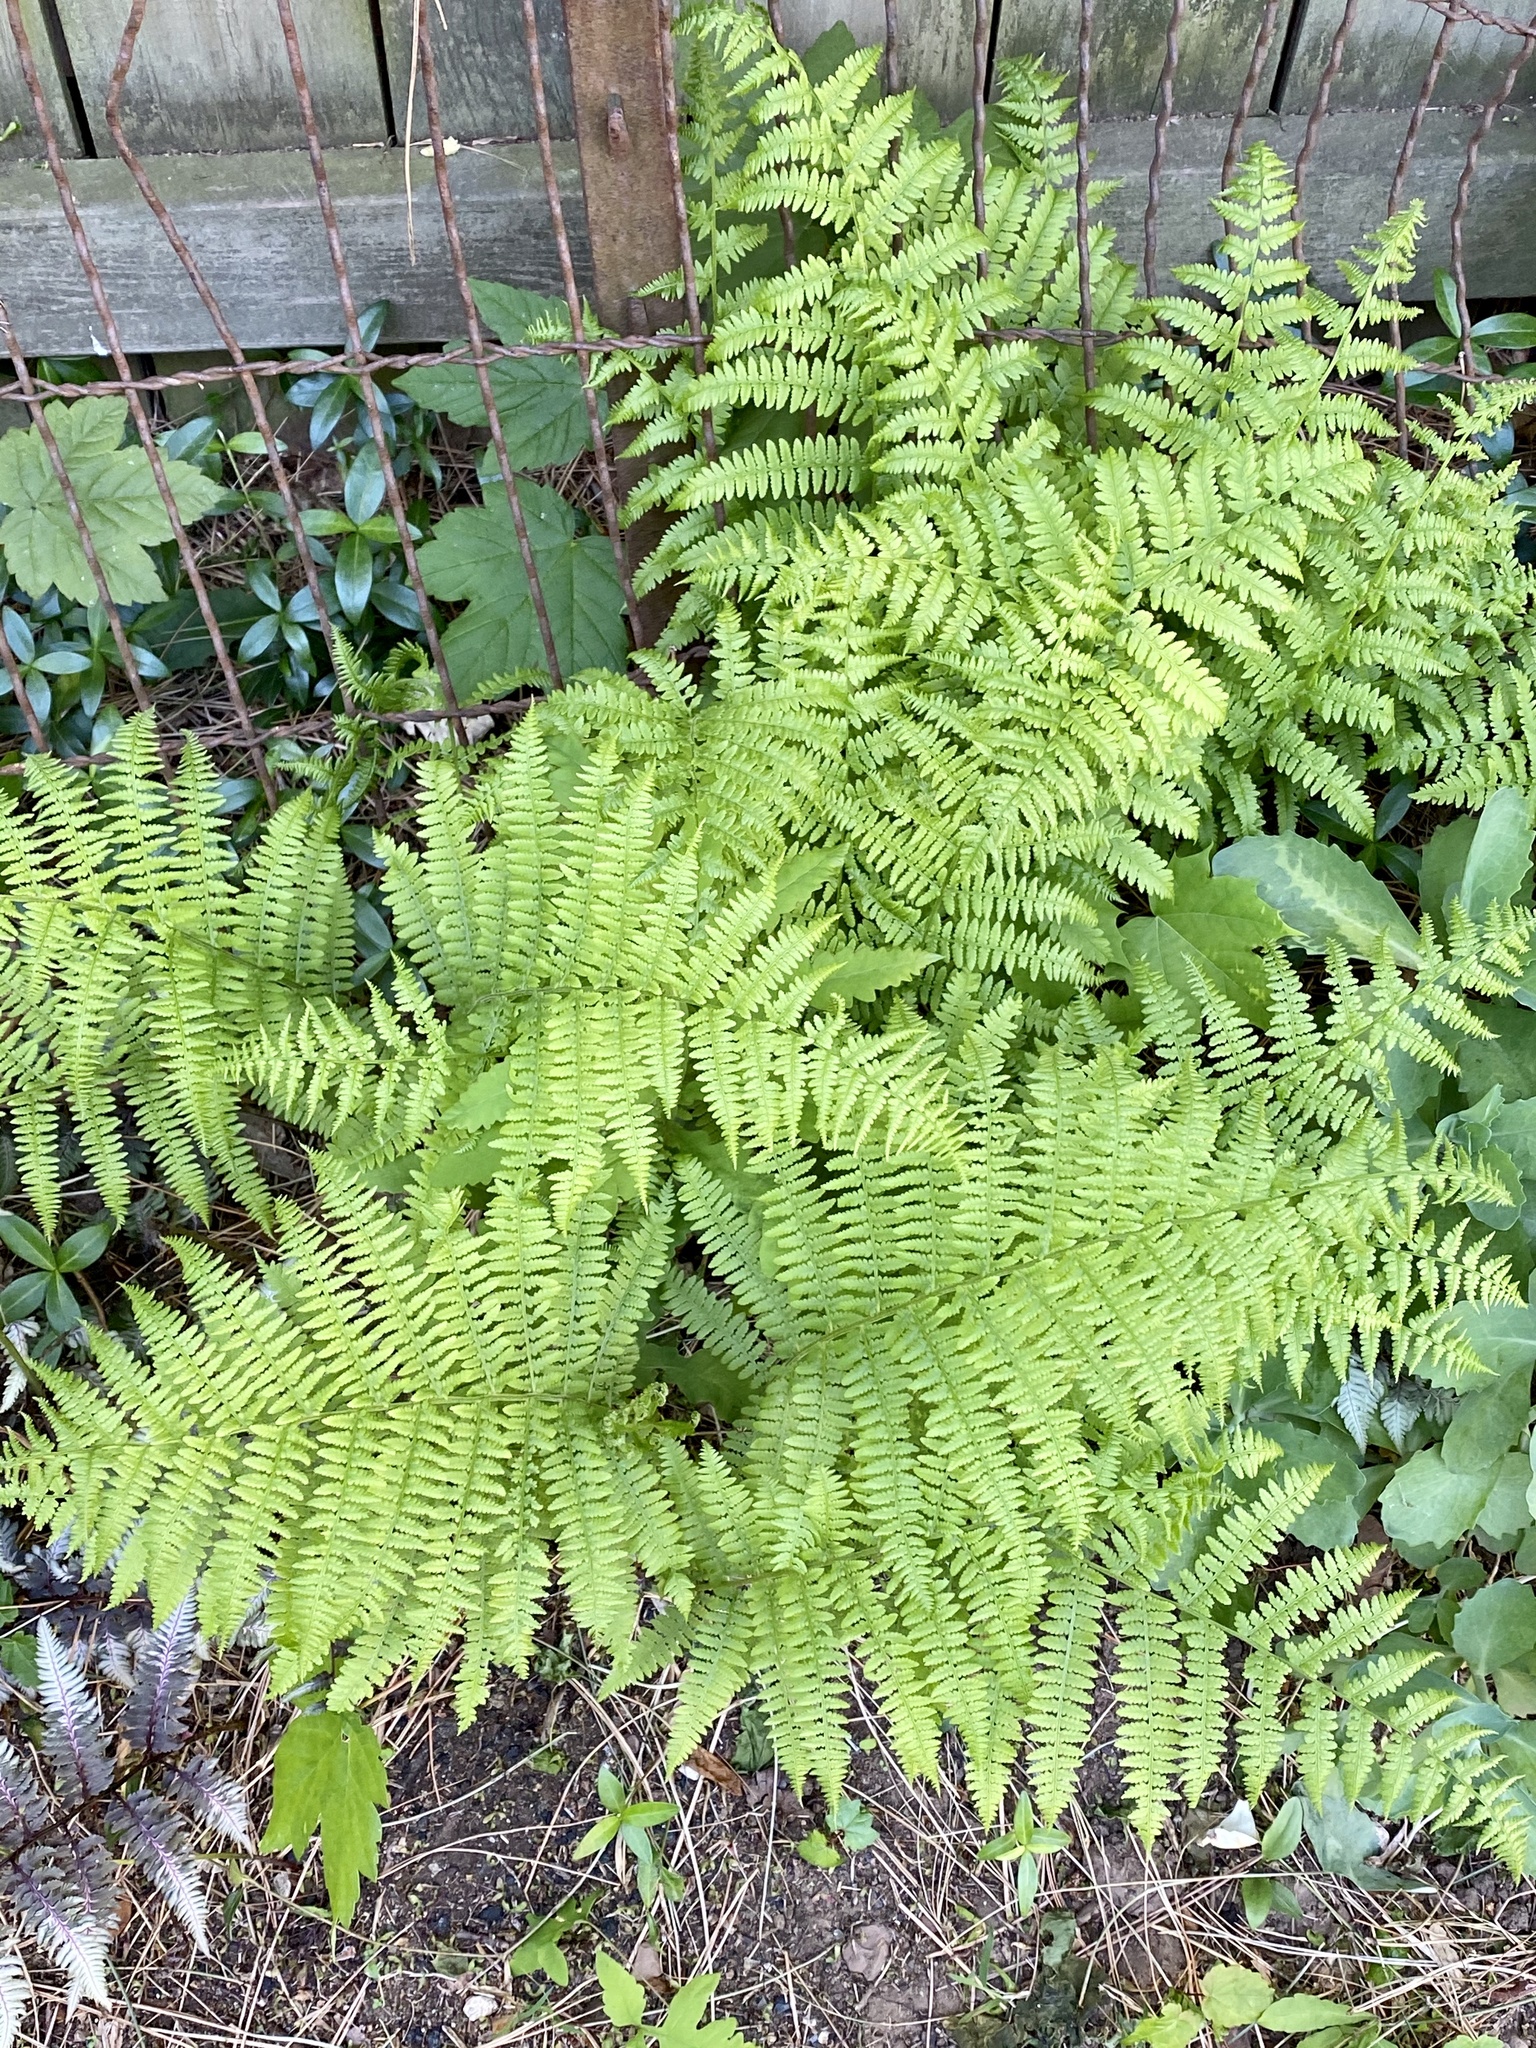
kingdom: Plantae
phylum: Tracheophyta
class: Polypodiopsida
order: Polypodiales
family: Athyriaceae
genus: Athyrium
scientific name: Athyrium angustum
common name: Northern lady fern
